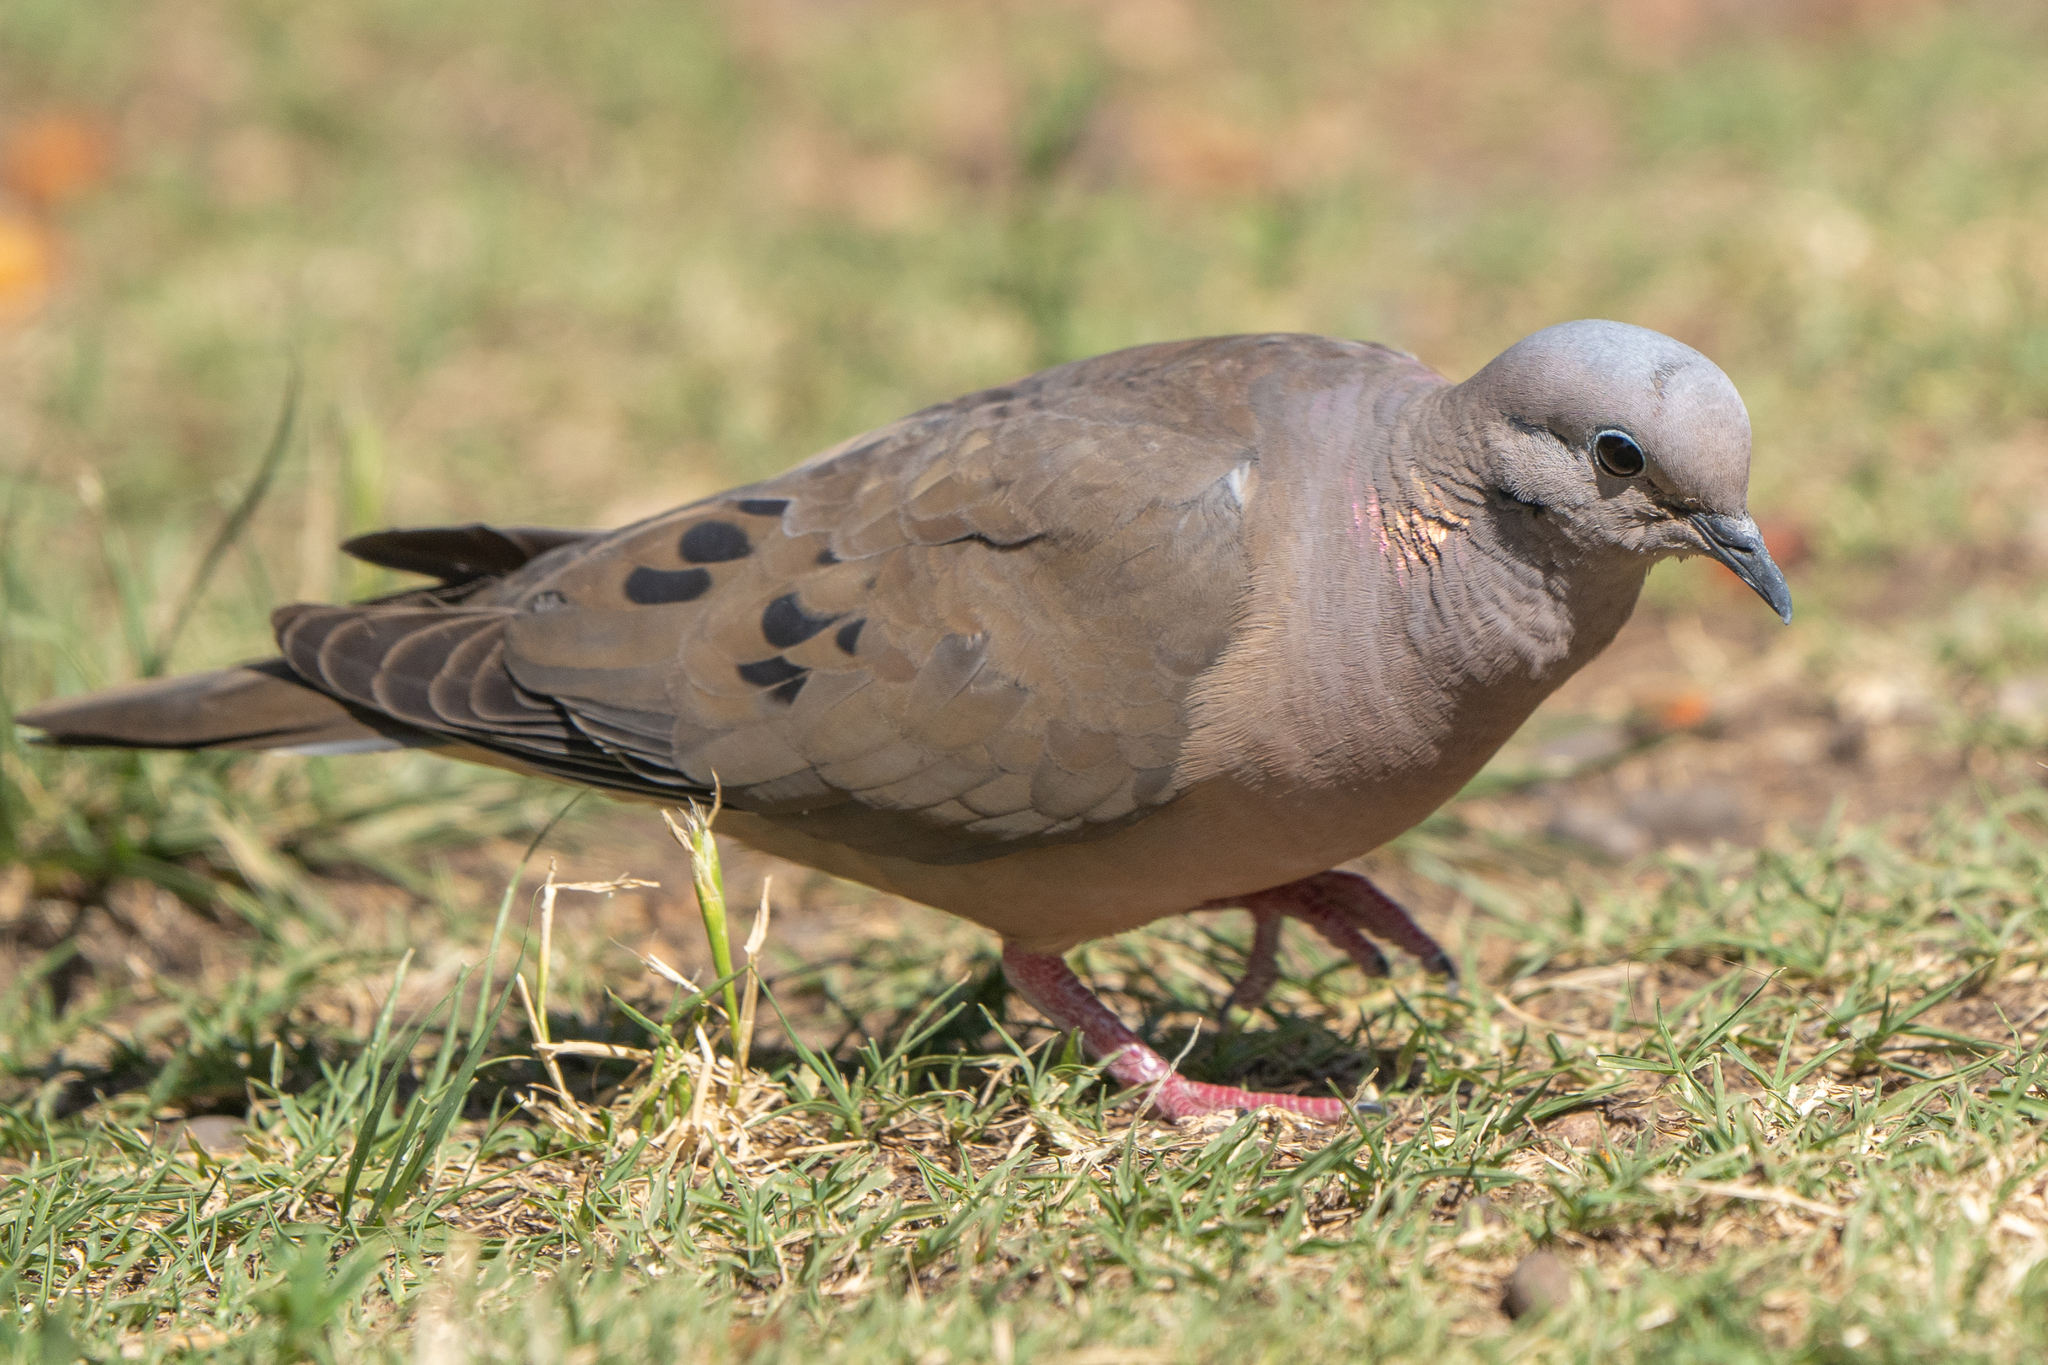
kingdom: Animalia
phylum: Chordata
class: Aves
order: Columbiformes
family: Columbidae
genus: Zenaida
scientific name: Zenaida auriculata
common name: Eared dove
